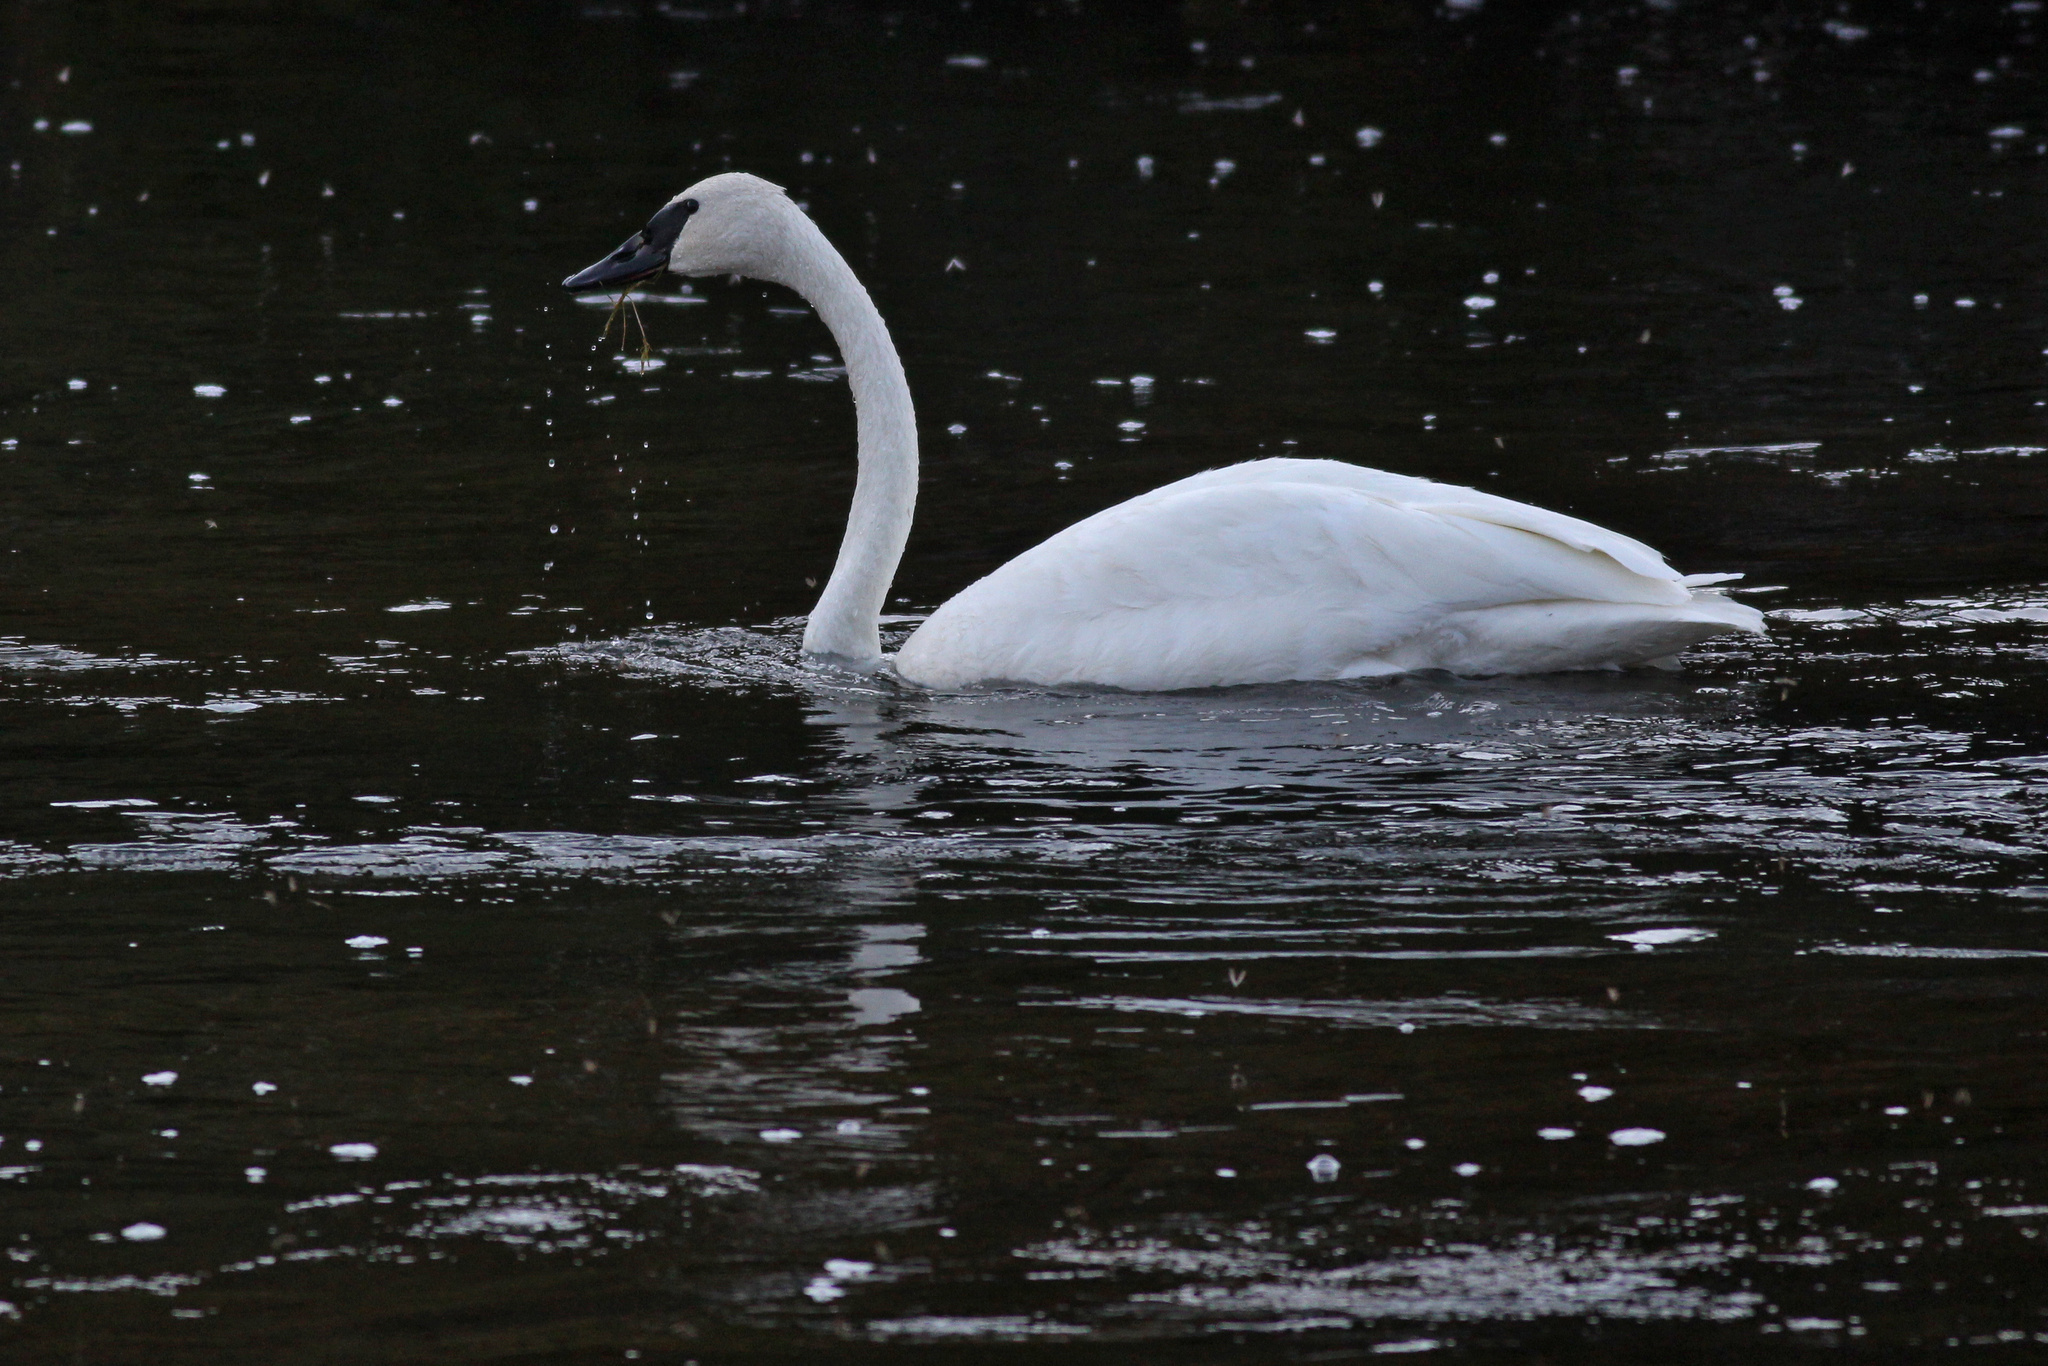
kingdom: Animalia
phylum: Chordata
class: Aves
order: Anseriformes
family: Anatidae
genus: Cygnus
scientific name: Cygnus buccinator
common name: Trumpeter swan
